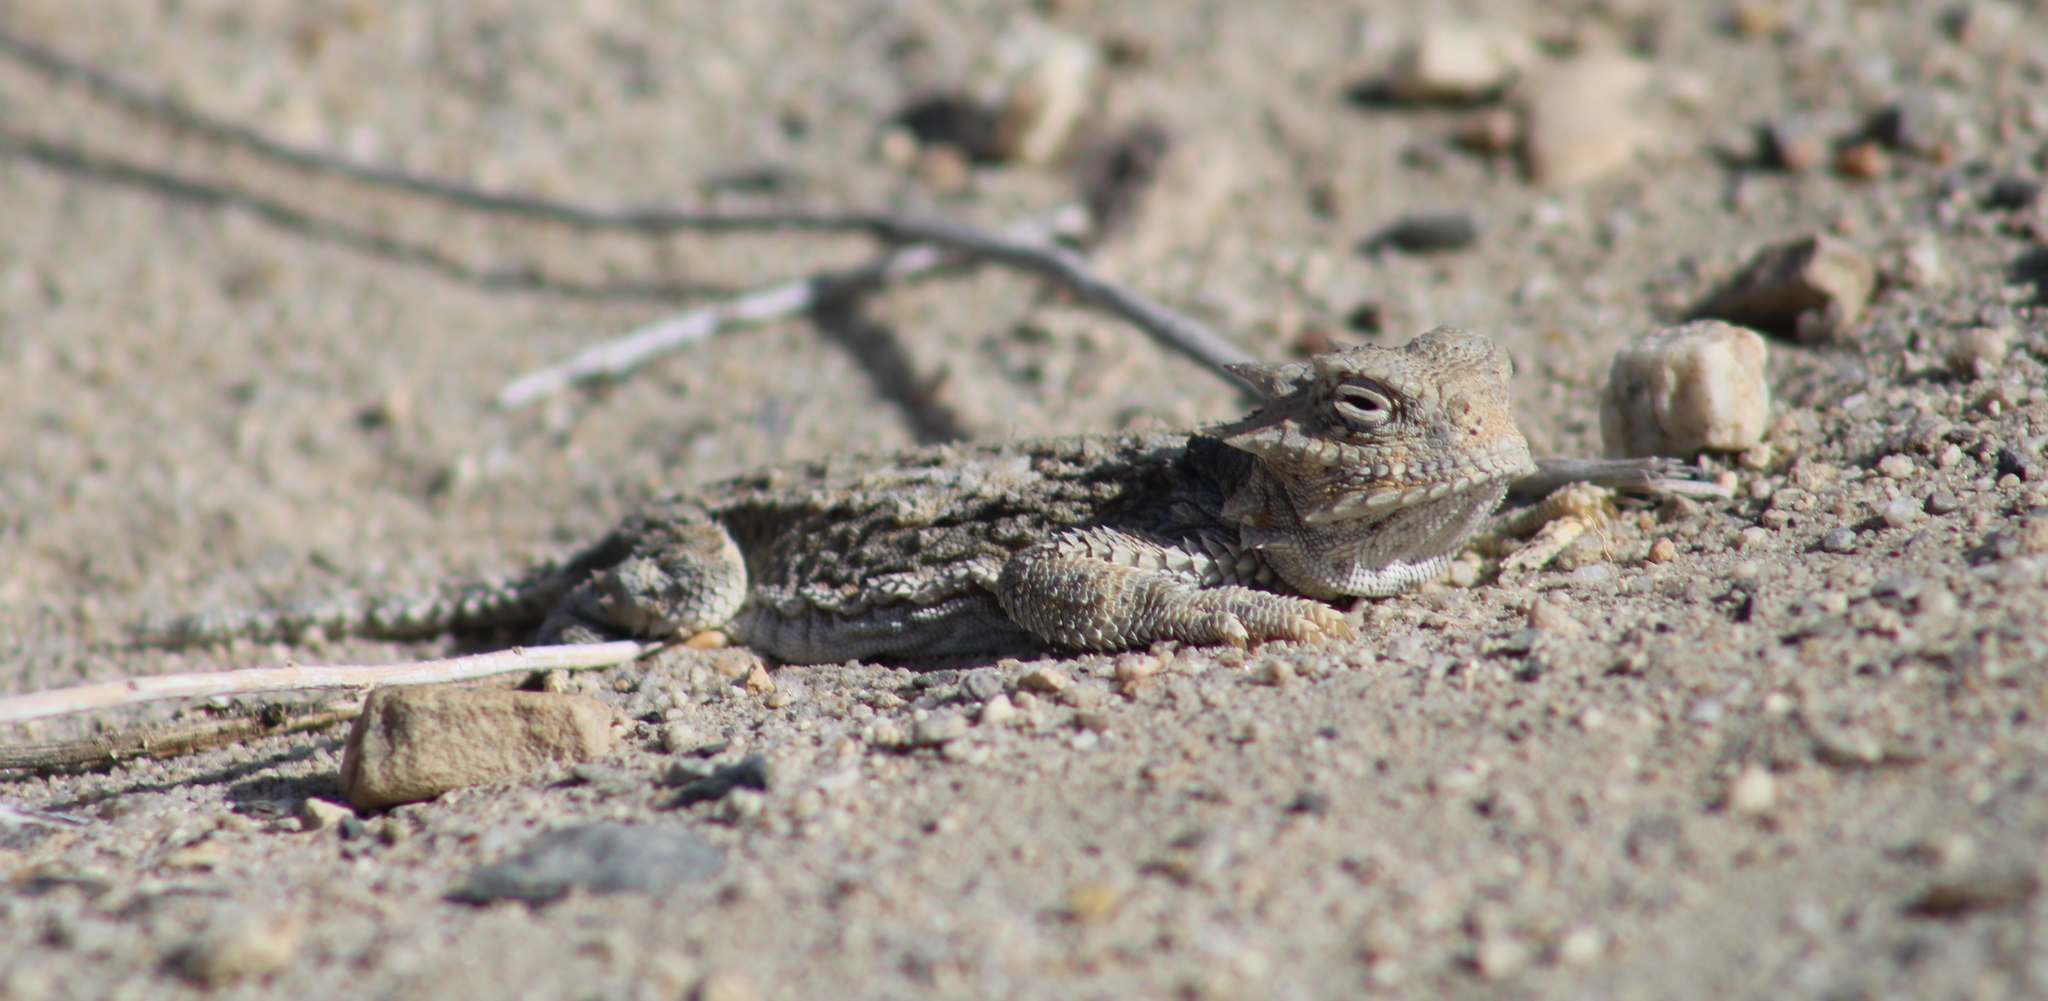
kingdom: Animalia
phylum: Chordata
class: Squamata
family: Phrynosomatidae
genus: Phrynosoma
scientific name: Phrynosoma platyrhinos
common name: Desert horned lizard
